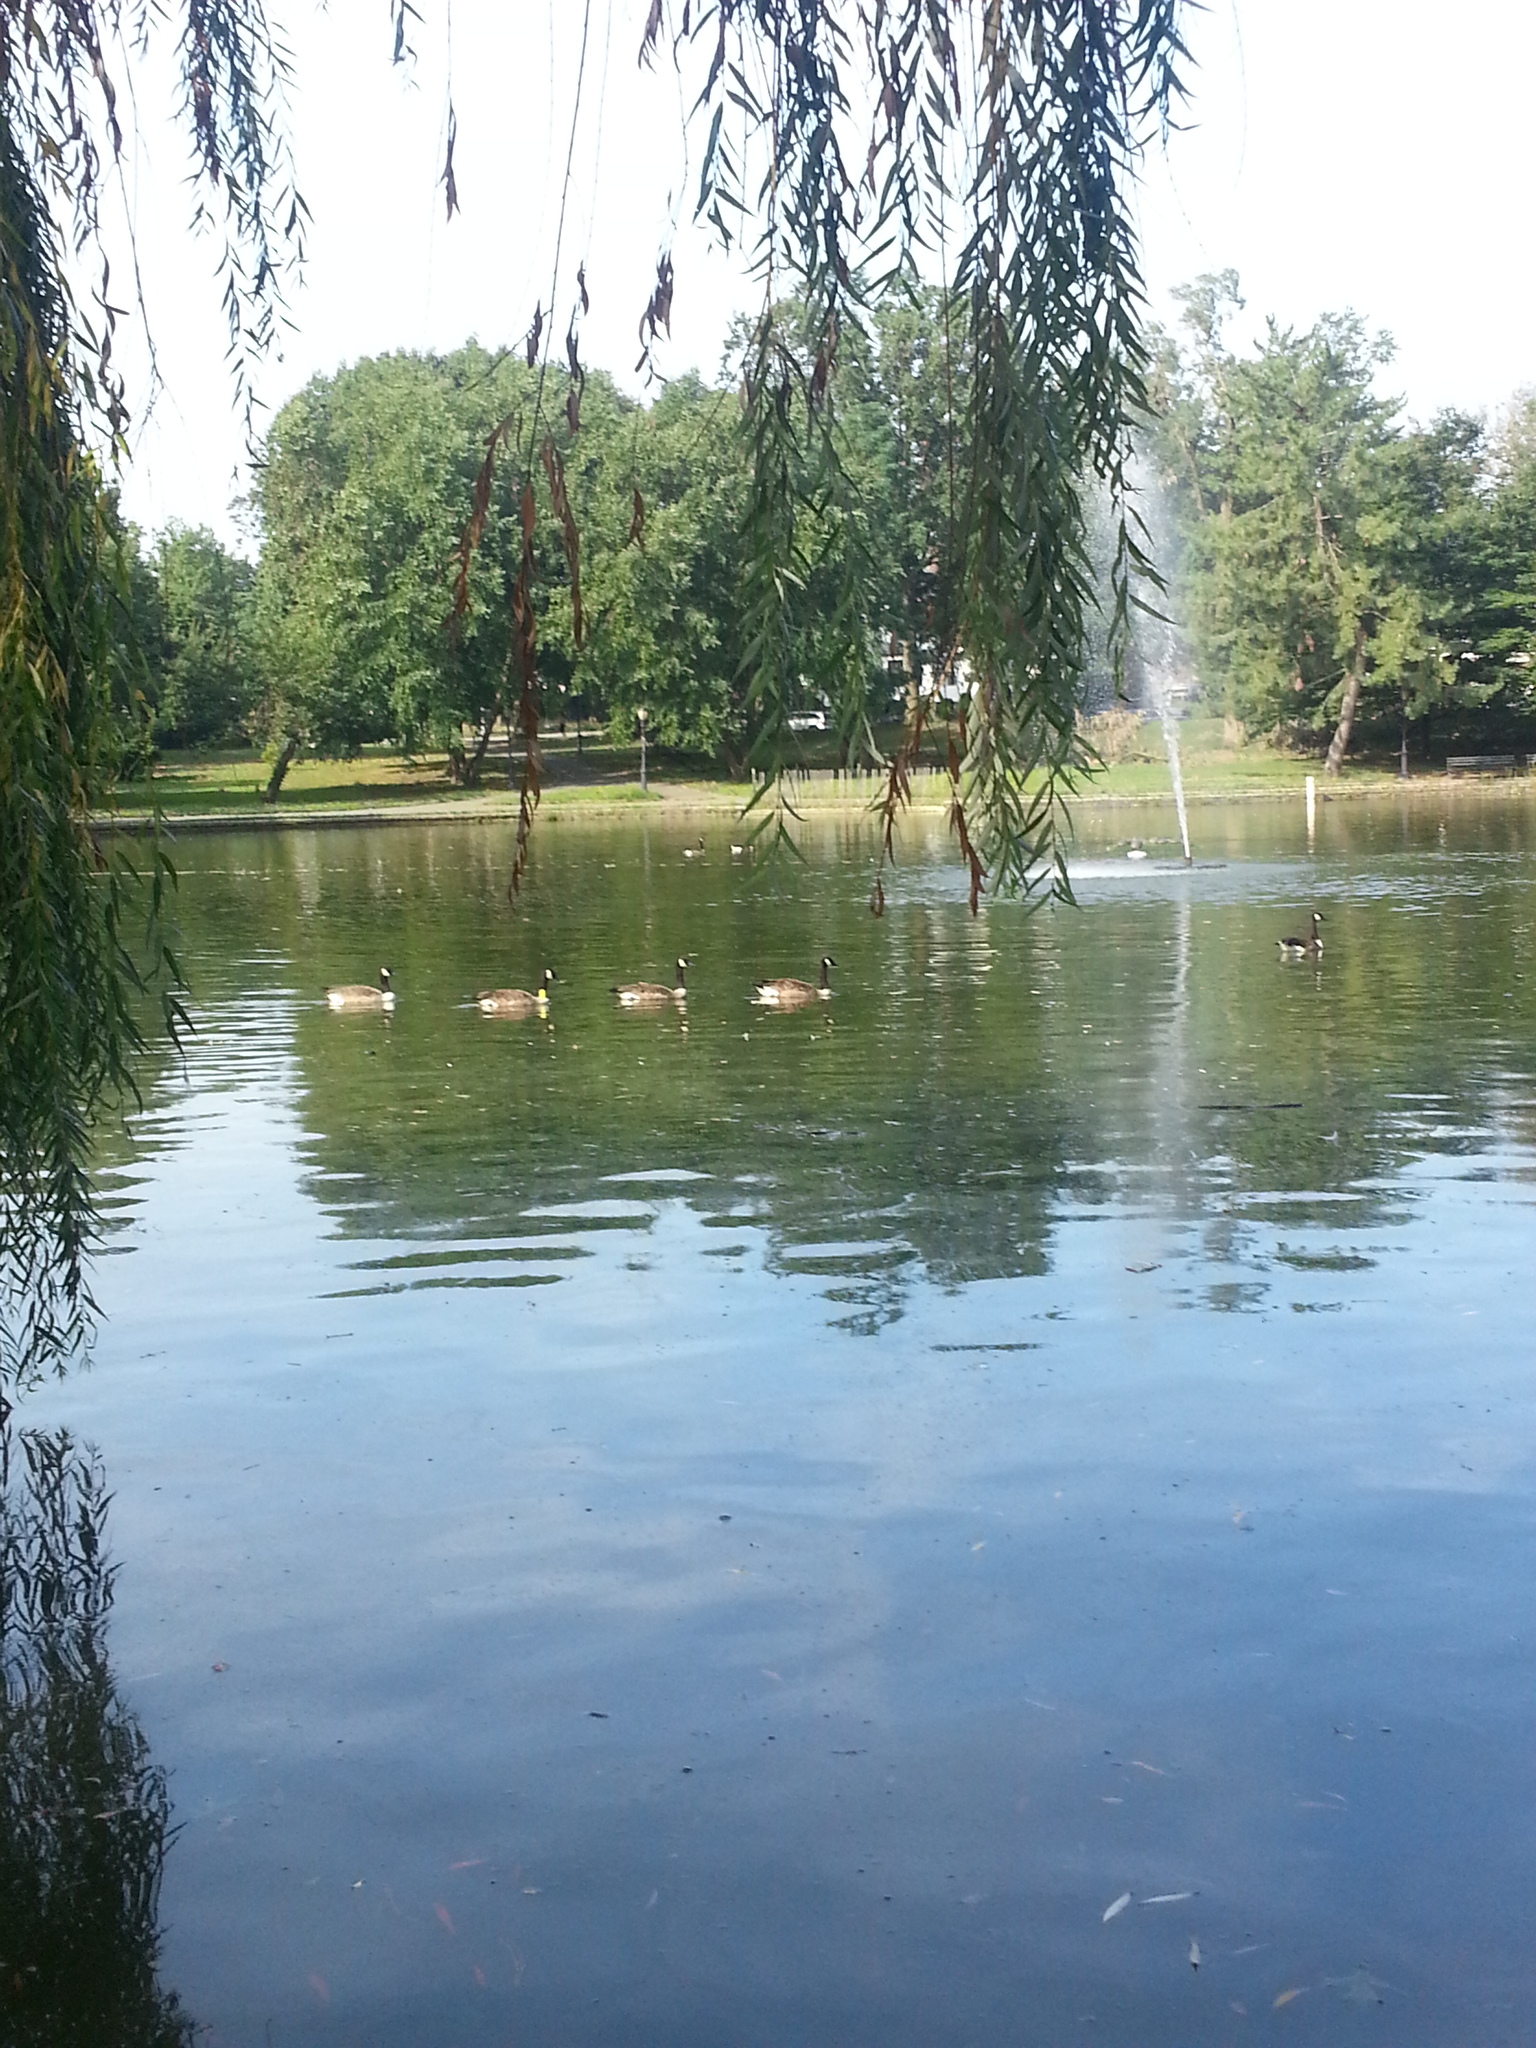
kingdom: Animalia
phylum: Chordata
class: Aves
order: Anseriformes
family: Anatidae
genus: Branta
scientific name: Branta canadensis
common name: Canada goose
